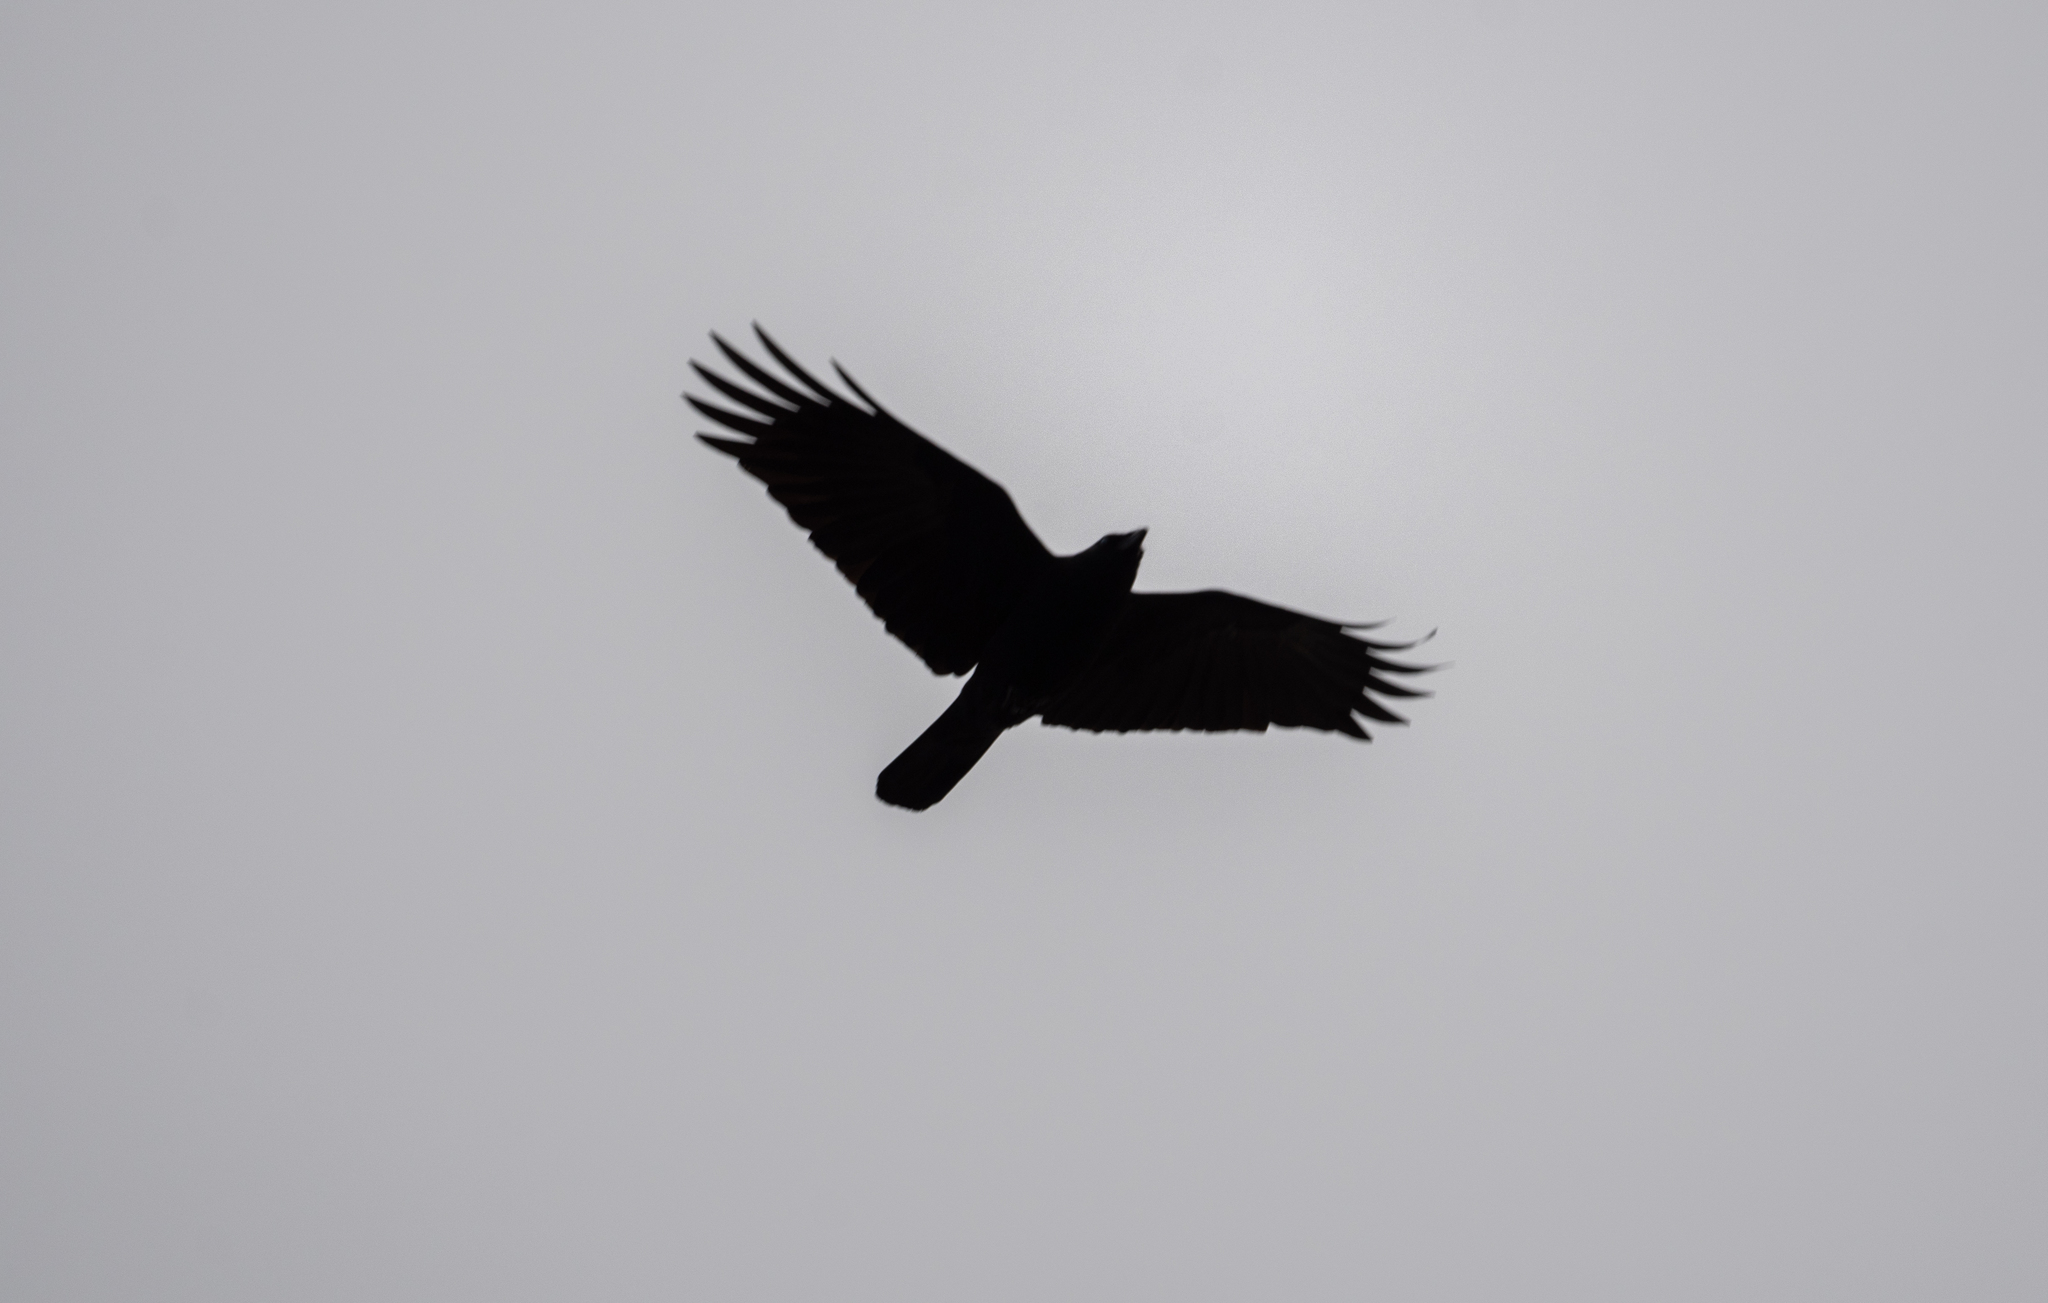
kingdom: Animalia
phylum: Chordata
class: Aves
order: Passeriformes
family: Corvidae
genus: Corvus
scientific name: Corvus brachyrhynchos
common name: American crow
